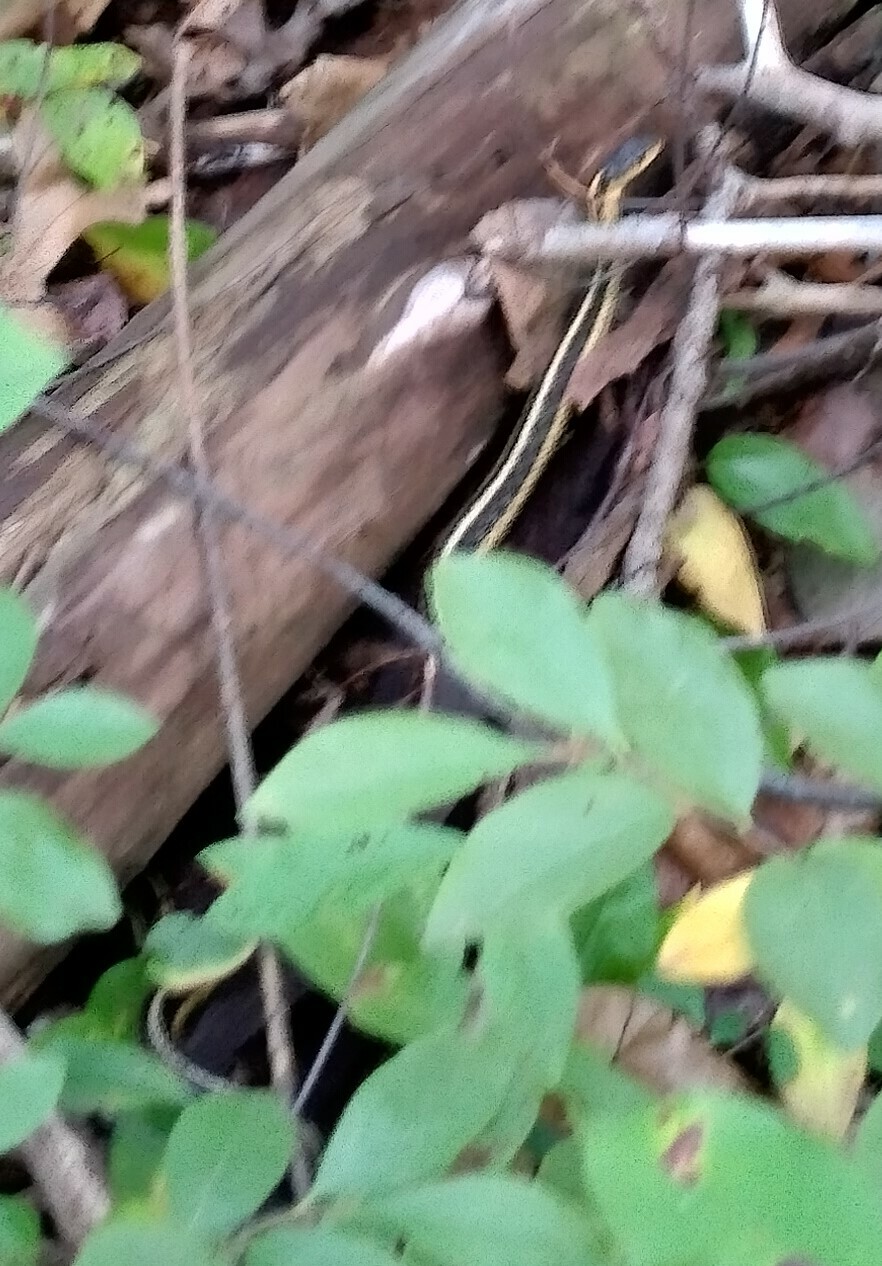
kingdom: Animalia
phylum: Chordata
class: Squamata
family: Colubridae
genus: Thamnophis
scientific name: Thamnophis sirtalis
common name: Common garter snake
